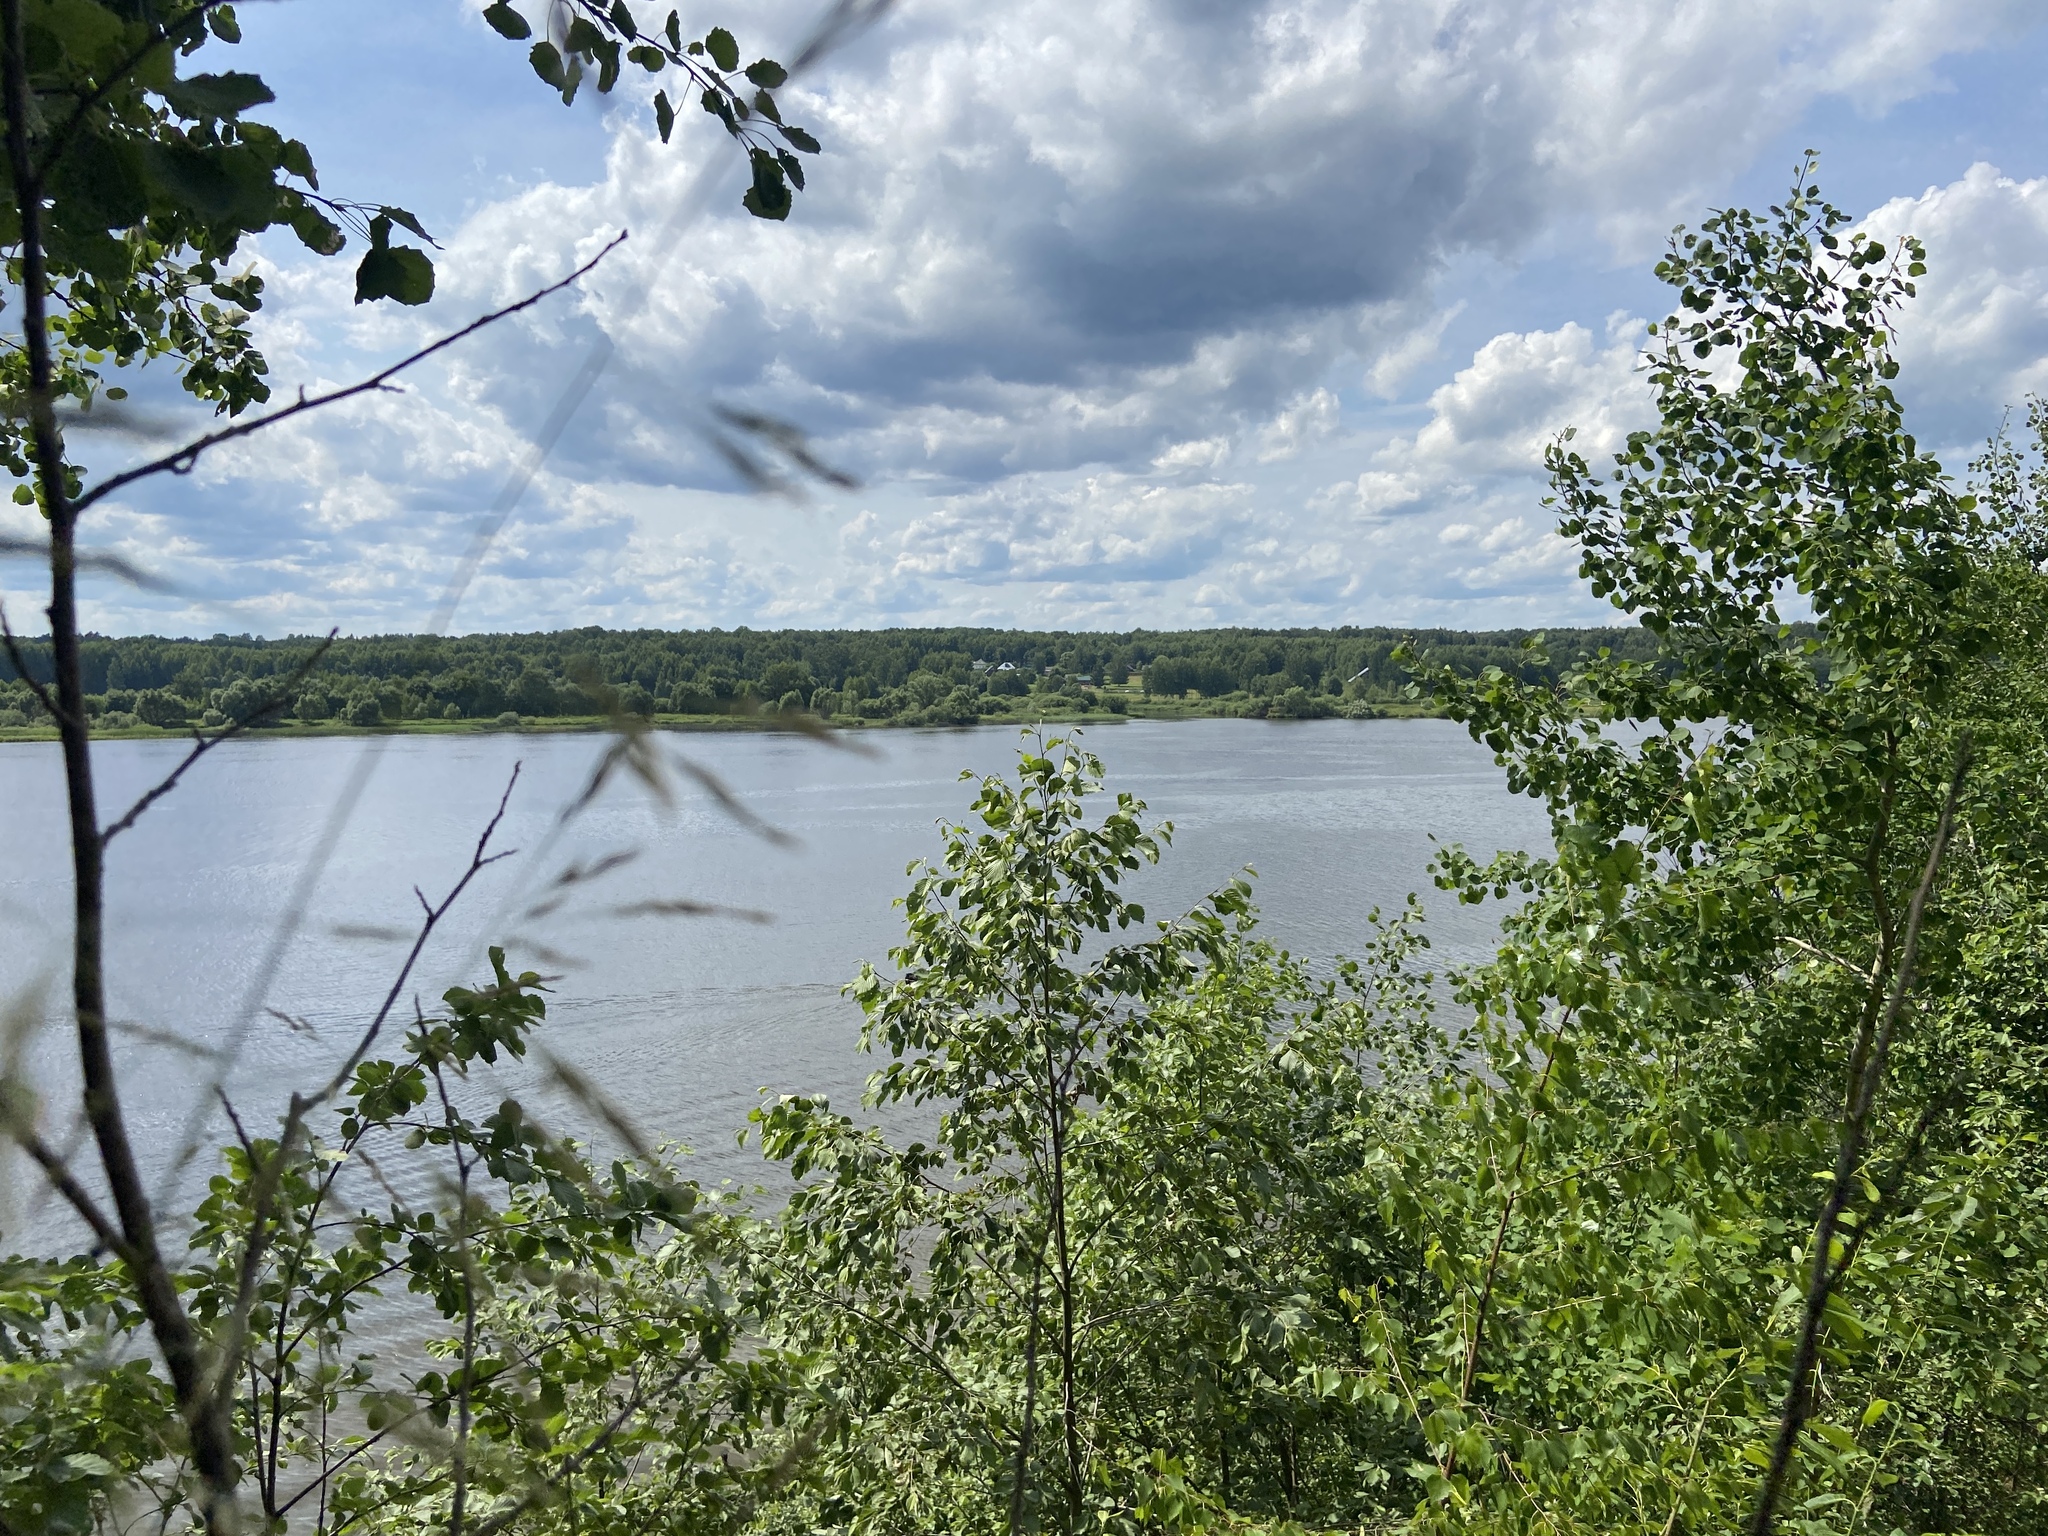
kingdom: Plantae
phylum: Tracheophyta
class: Magnoliopsida
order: Malpighiales
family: Salicaceae
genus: Populus
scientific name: Populus tremula
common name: European aspen
